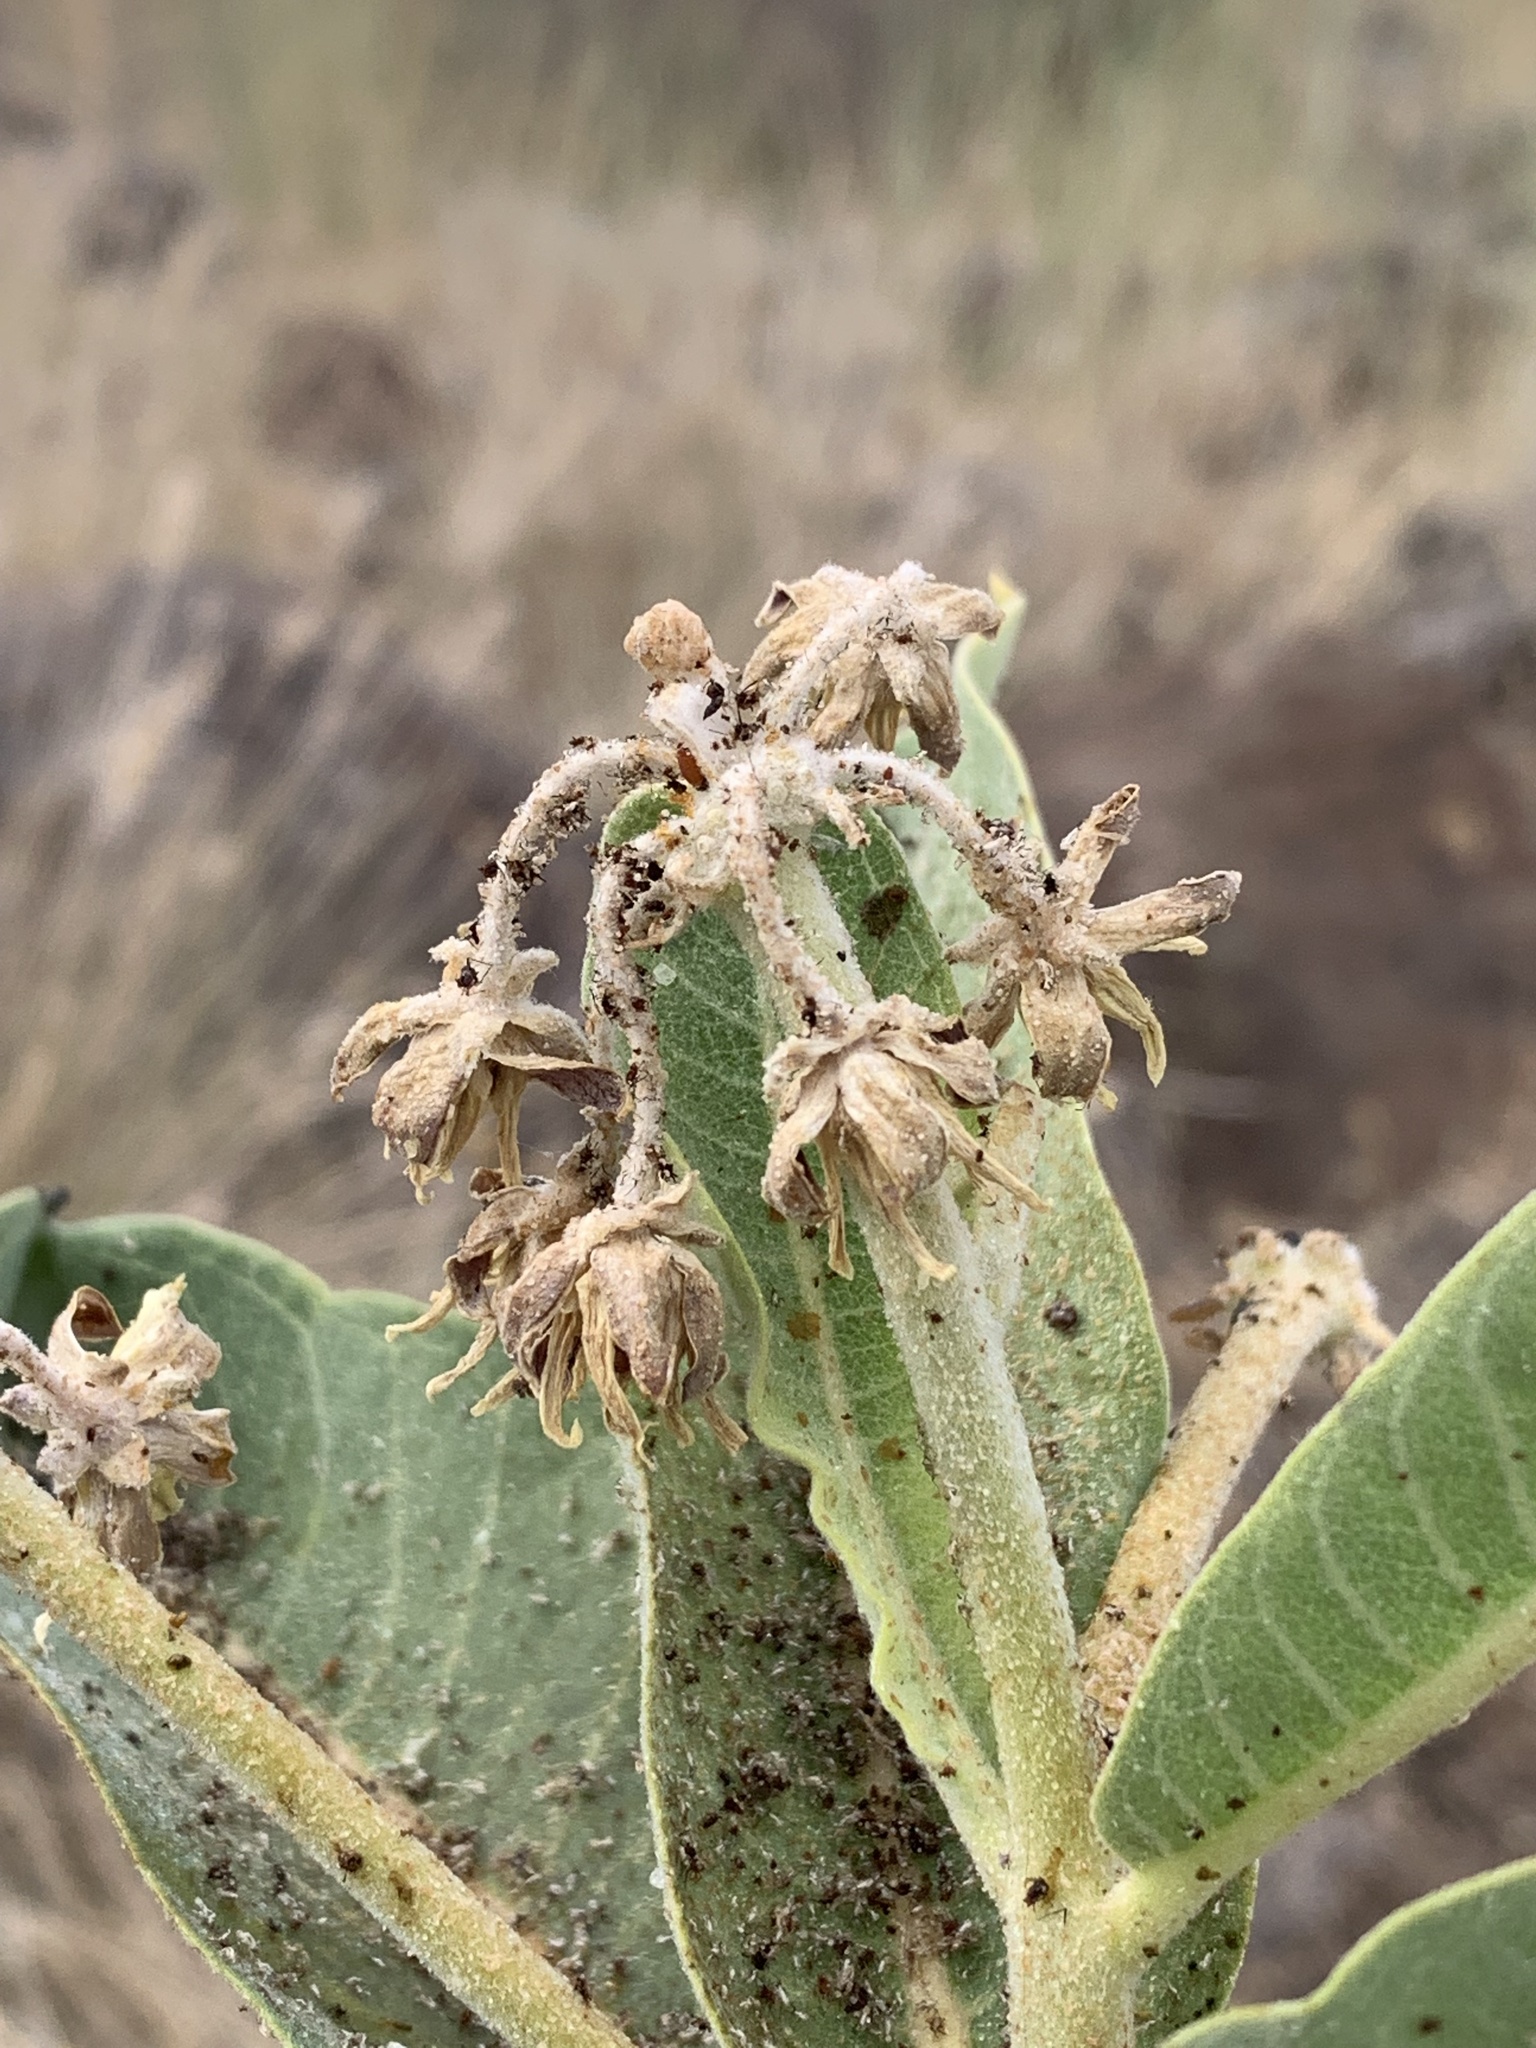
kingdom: Plantae
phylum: Tracheophyta
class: Magnoliopsida
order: Gentianales
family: Apocynaceae
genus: Asclepias
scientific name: Asclepias speciosa
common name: Showy milkweed
